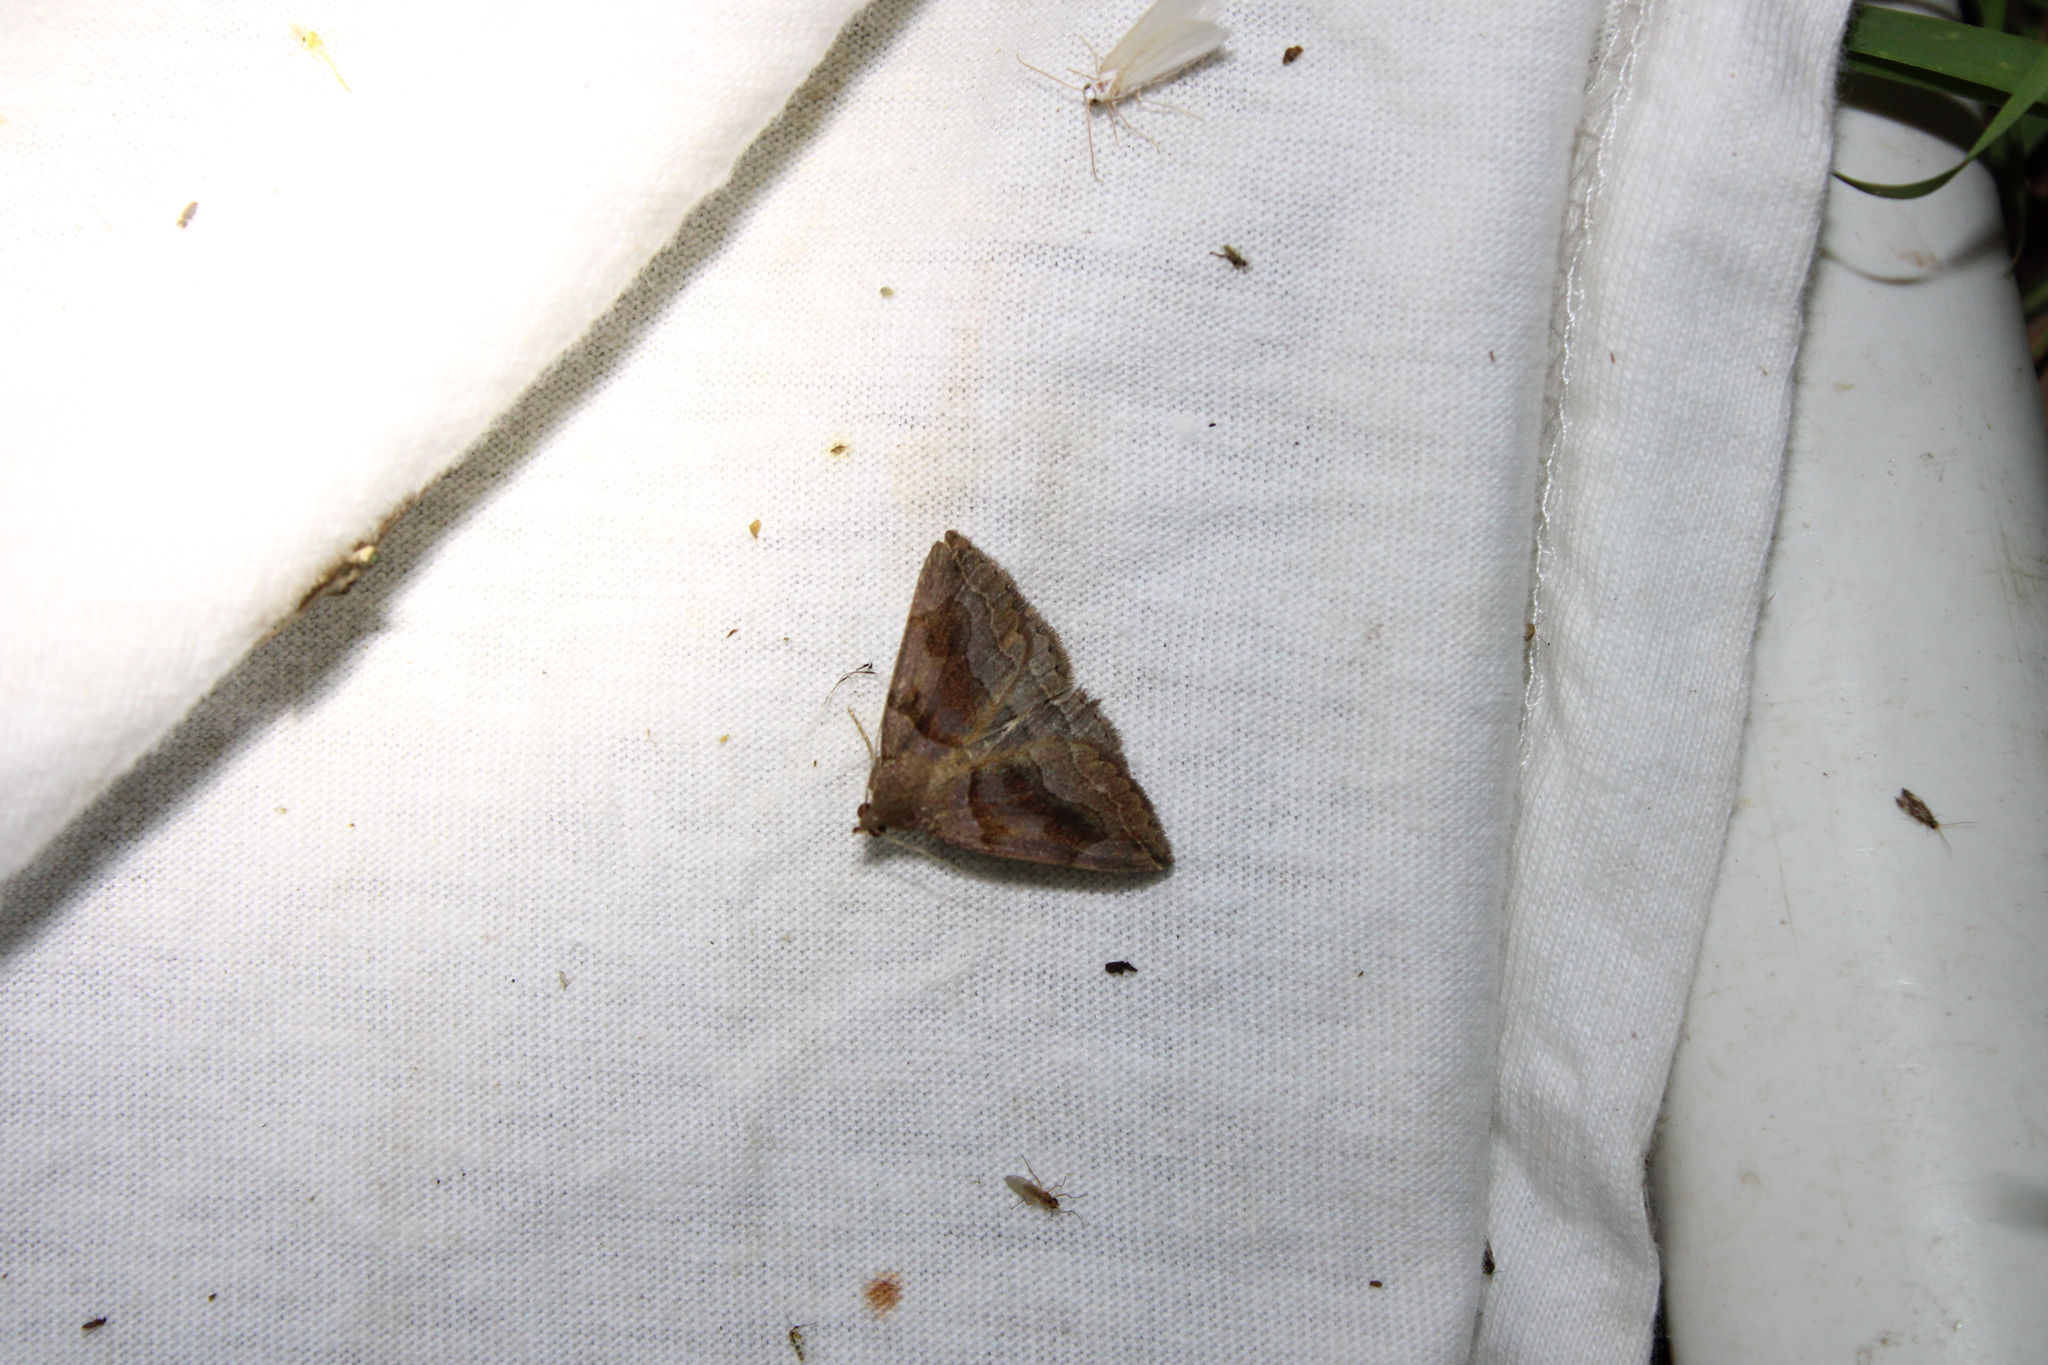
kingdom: Animalia
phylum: Arthropoda
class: Insecta
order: Lepidoptera
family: Erebidae
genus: Zanclognatha
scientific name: Zanclognatha laevigata
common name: Variable fan-foot
